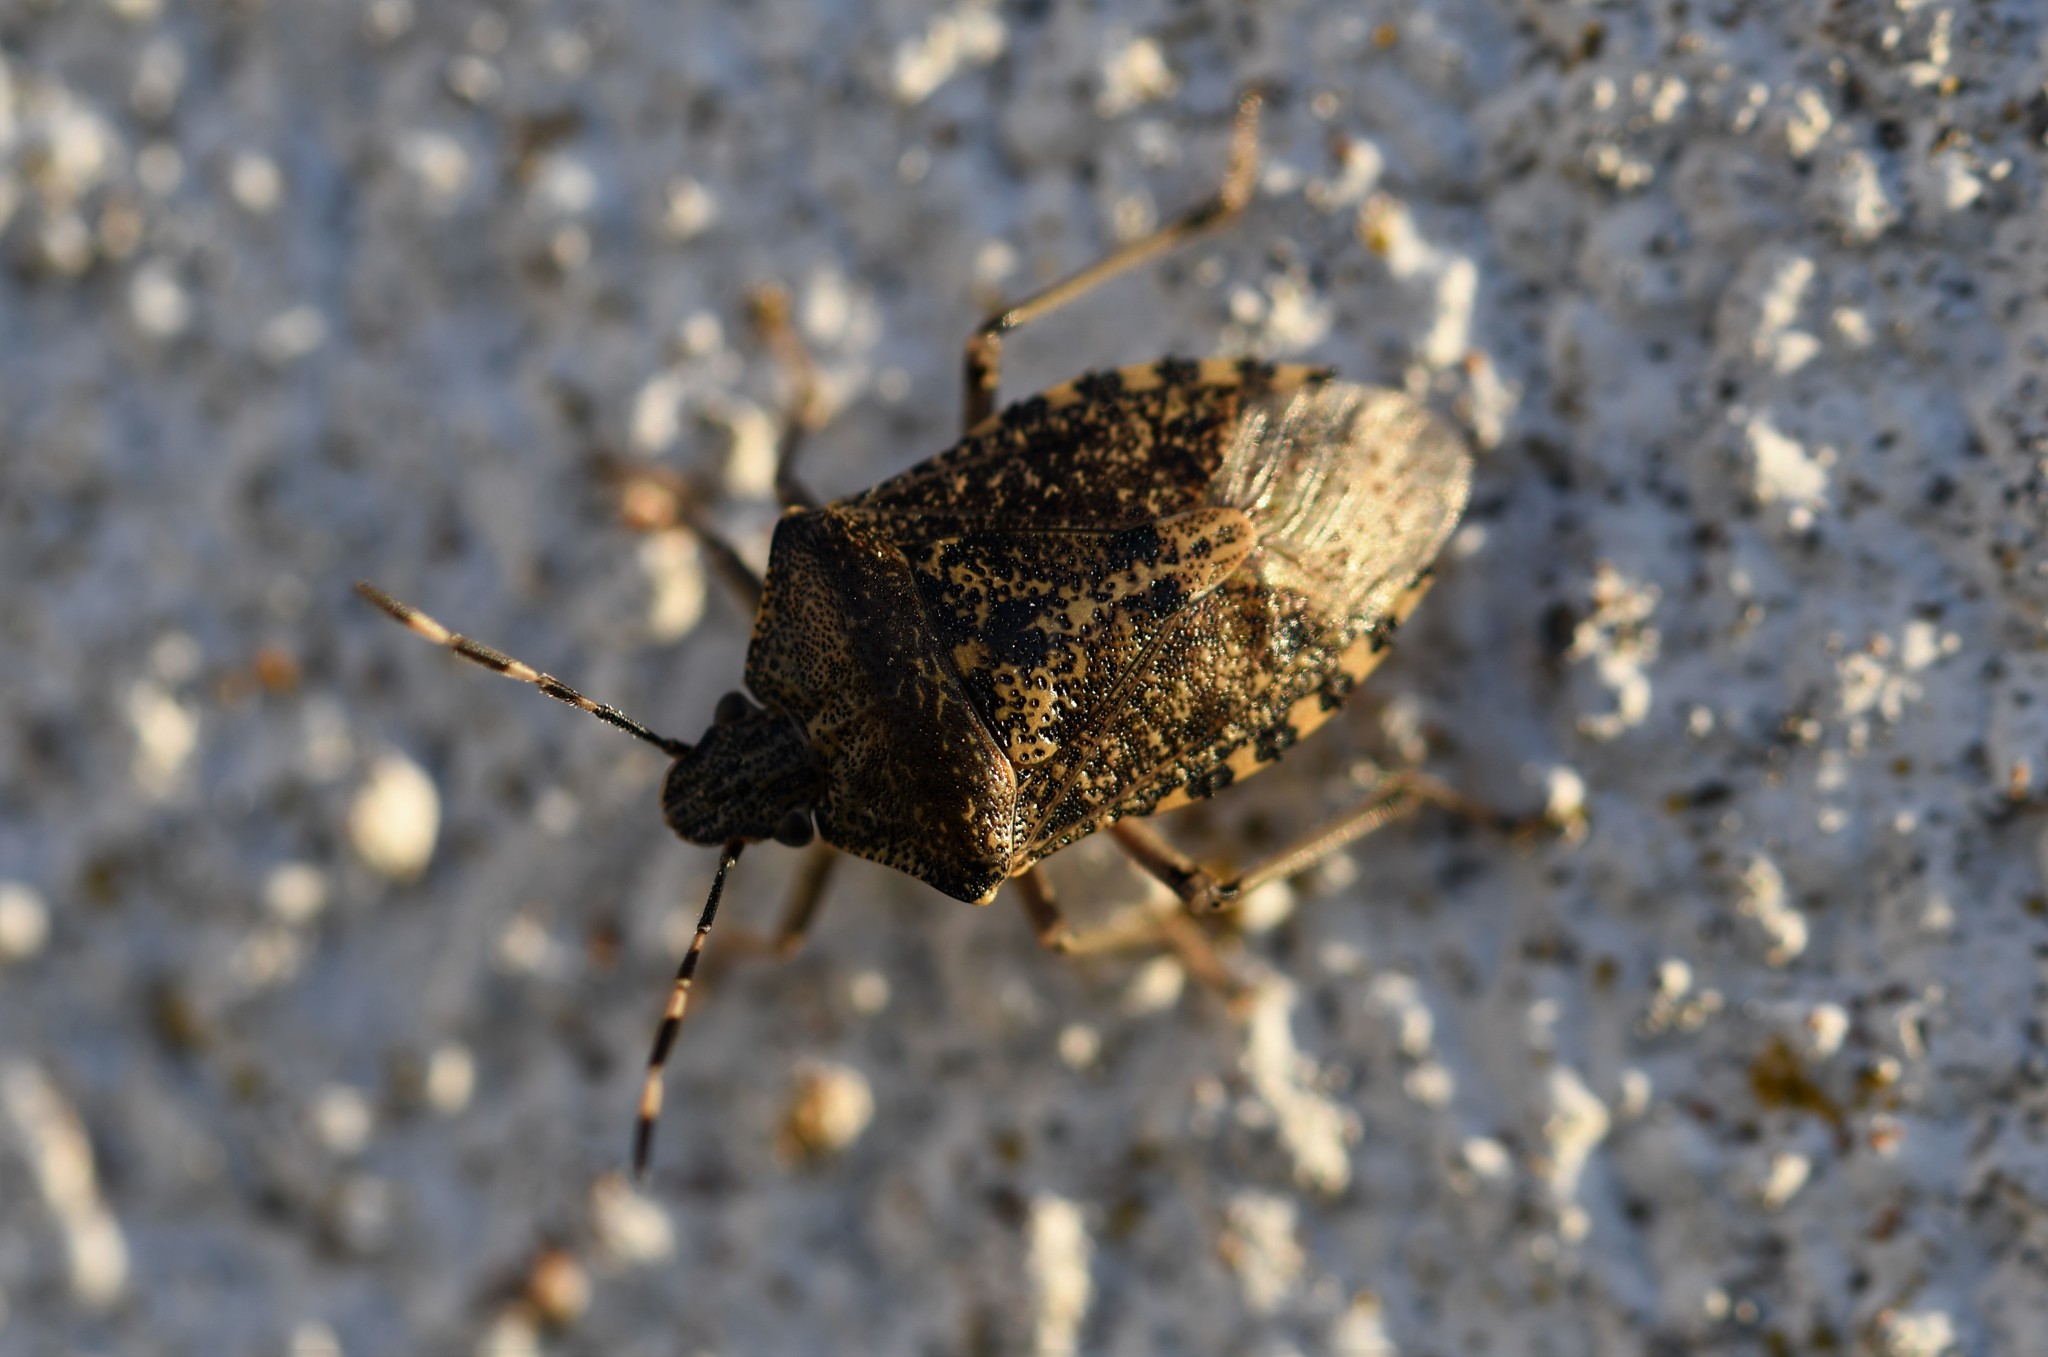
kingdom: Animalia
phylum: Arthropoda
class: Insecta
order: Hemiptera
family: Pentatomidae
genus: Rhaphigaster
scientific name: Rhaphigaster nebulosa
